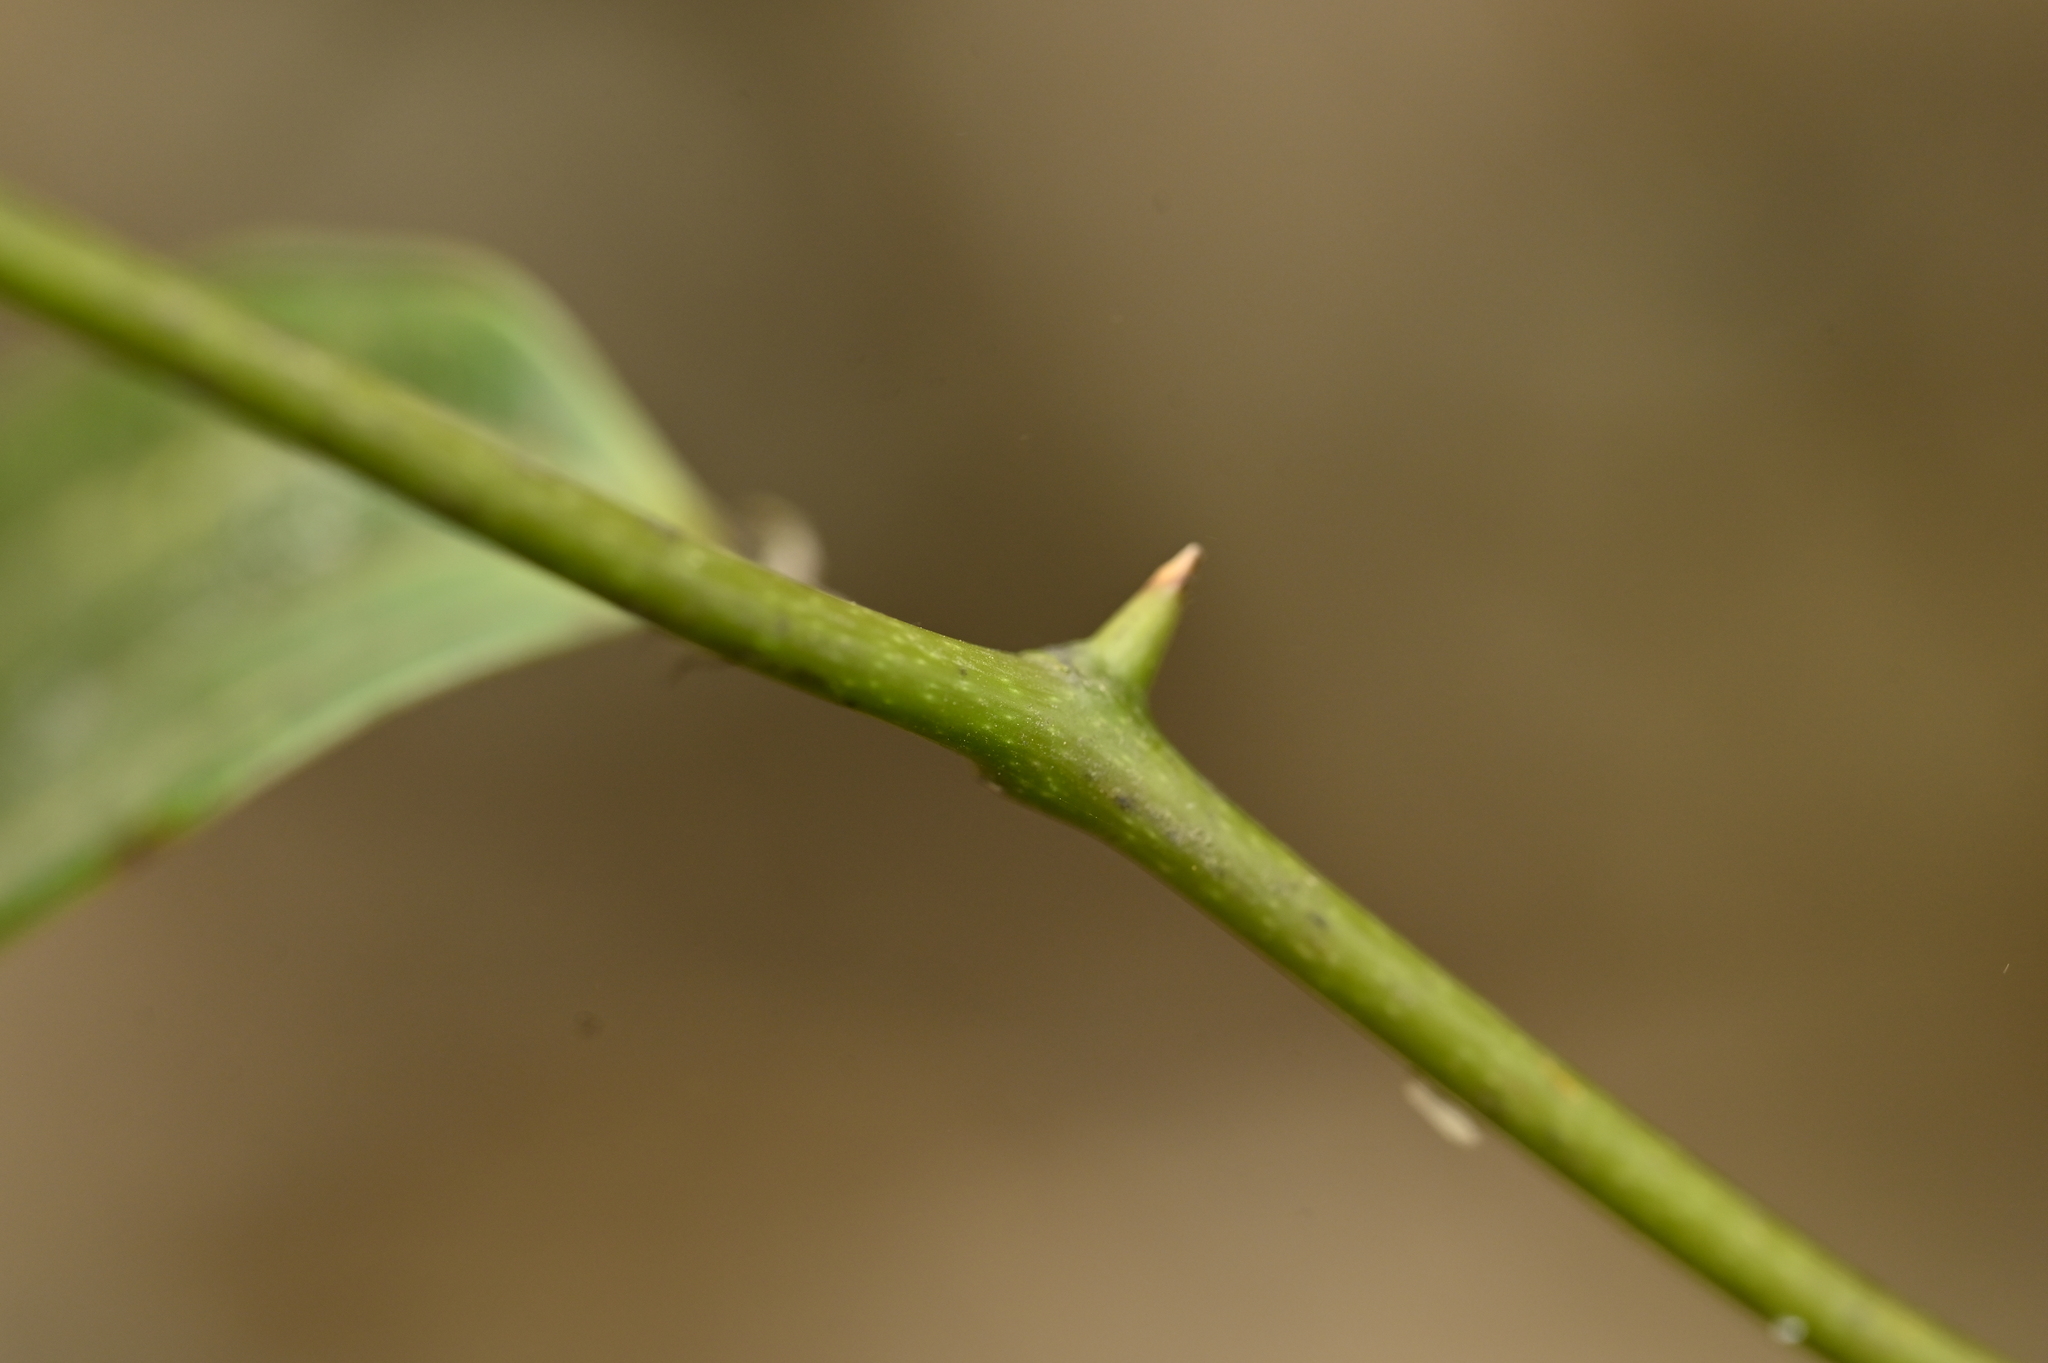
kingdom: Plantae
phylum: Tracheophyta
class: Liliopsida
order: Liliales
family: Smilacaceae
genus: Smilax
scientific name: Smilax nantoensis
